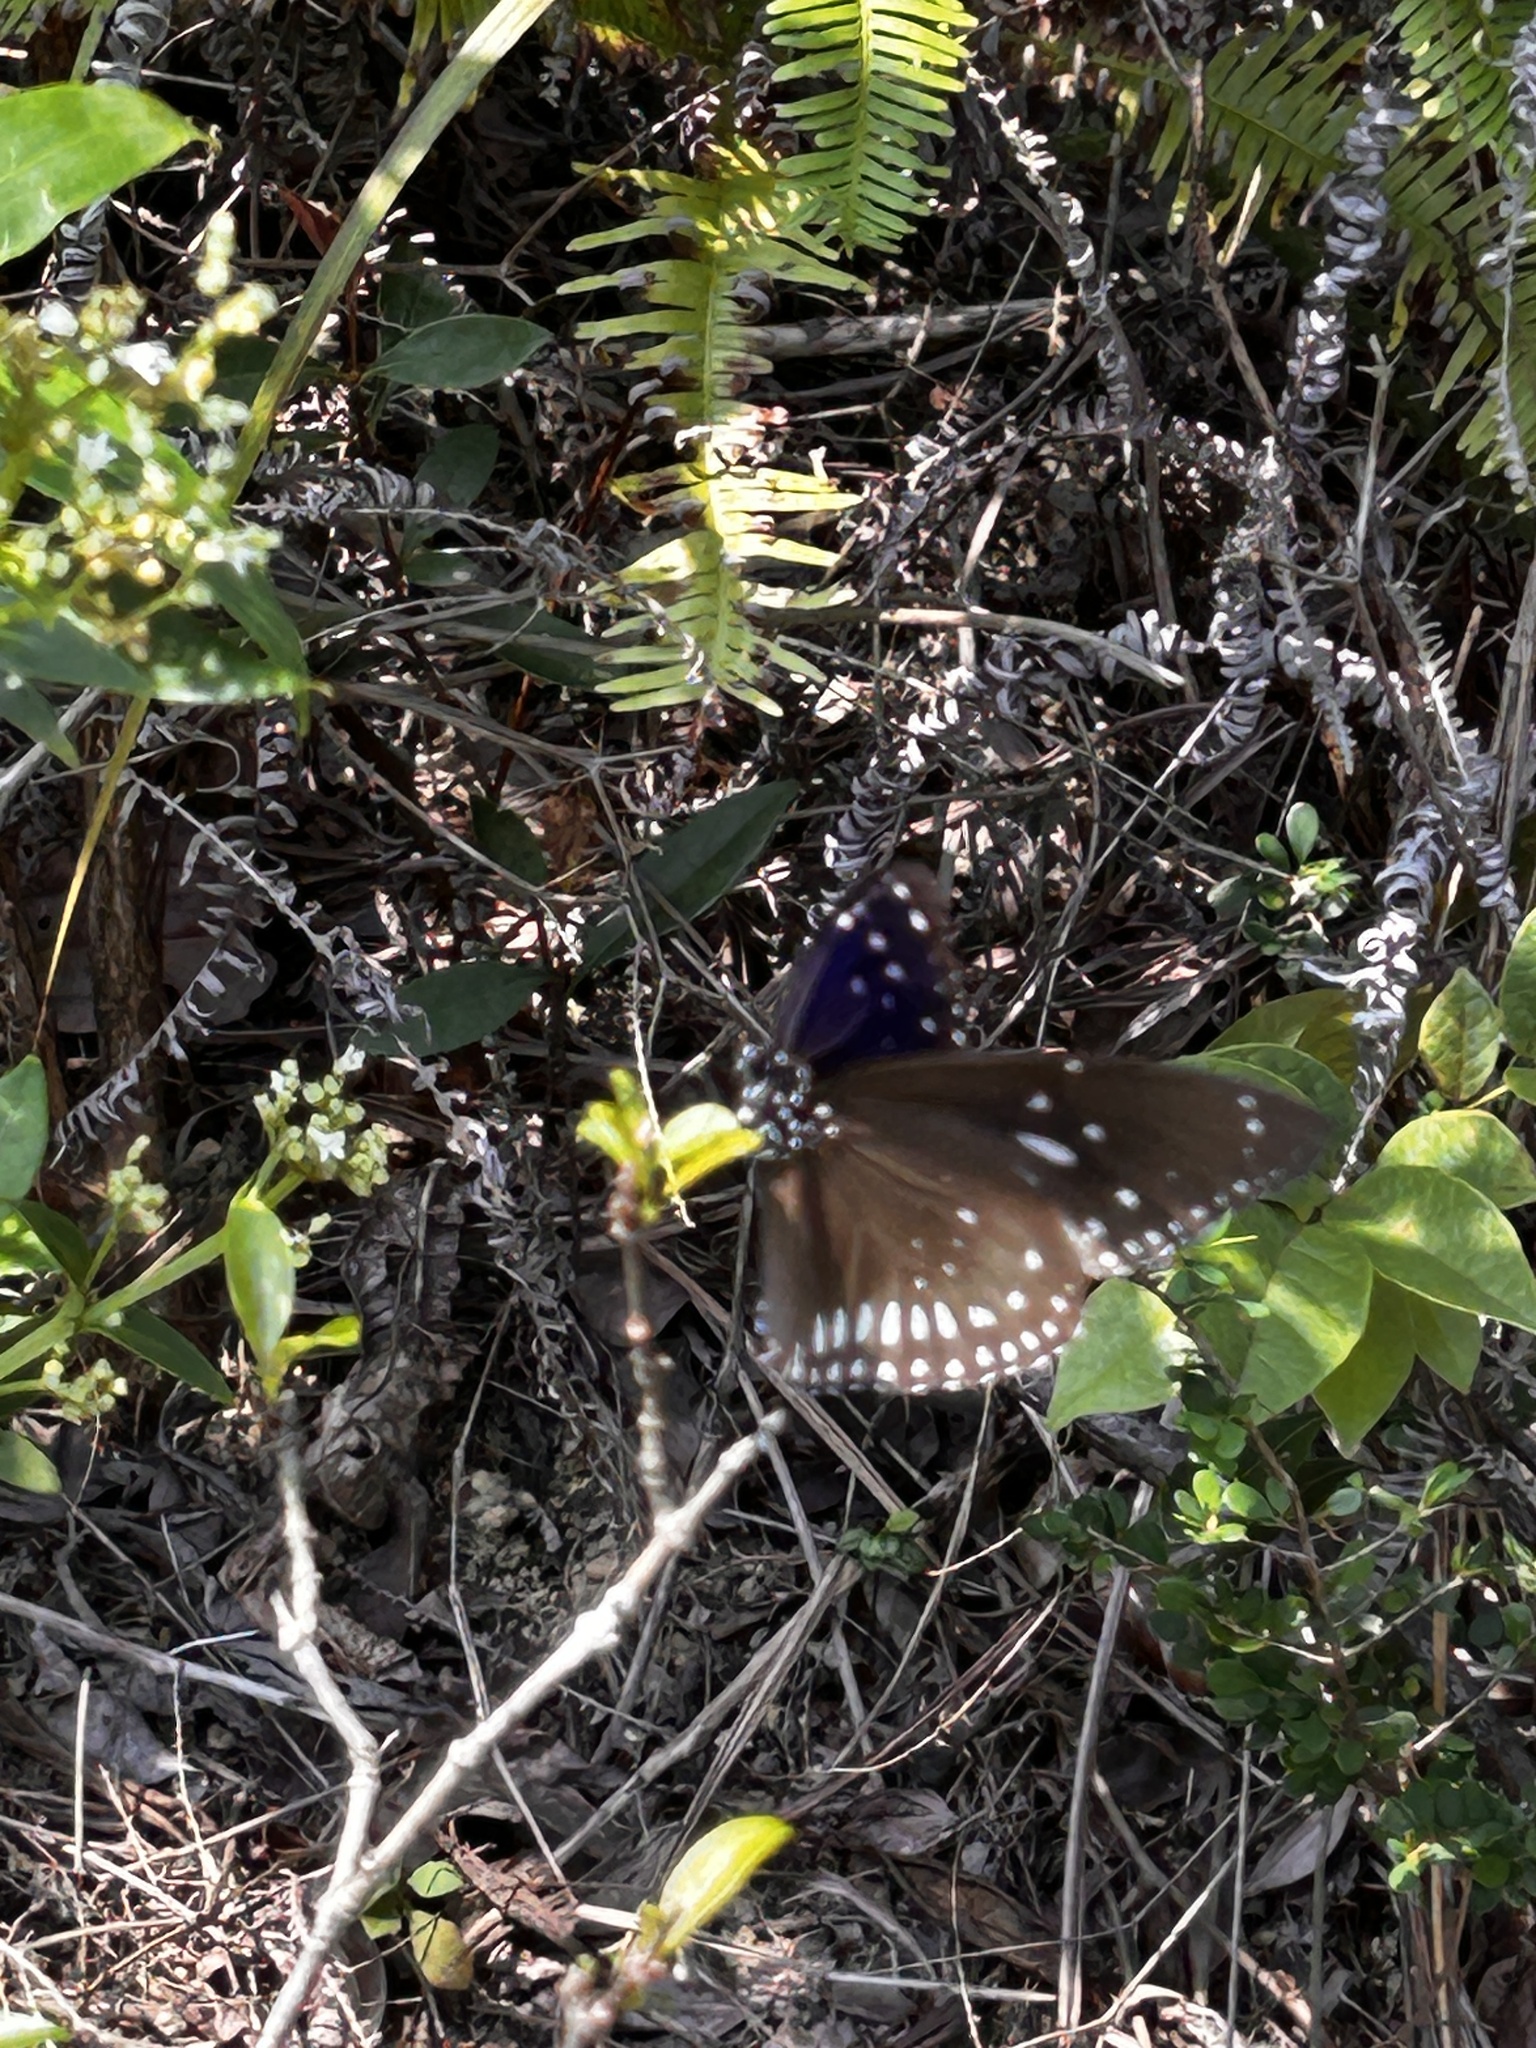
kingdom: Animalia
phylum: Arthropoda
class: Insecta
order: Lepidoptera
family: Nymphalidae
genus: Euploea
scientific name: Euploea midamus
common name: Blue-spotted crow butterfly
